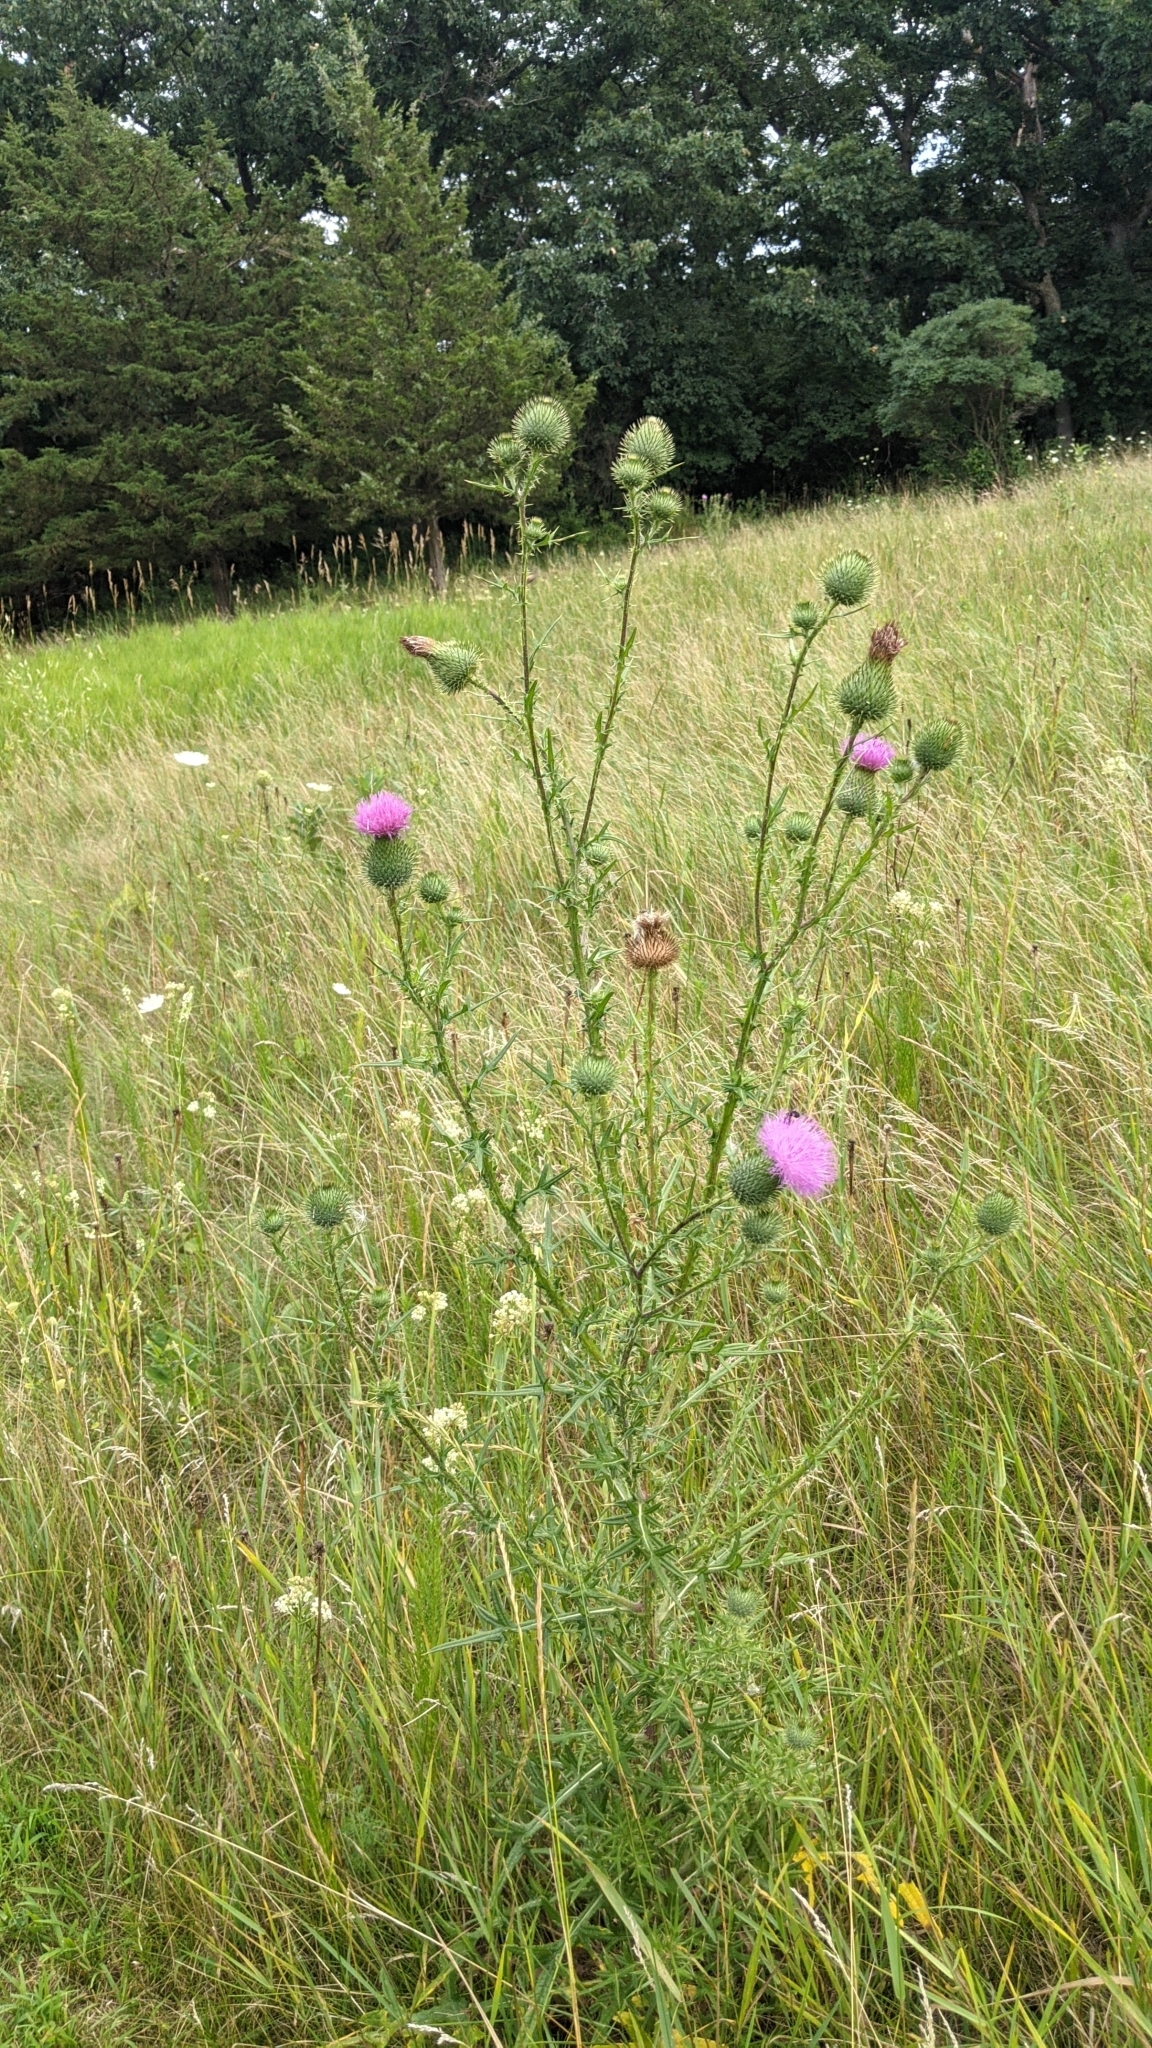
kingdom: Plantae
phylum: Tracheophyta
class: Magnoliopsida
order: Asterales
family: Asteraceae
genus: Cirsium
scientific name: Cirsium vulgare
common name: Bull thistle
